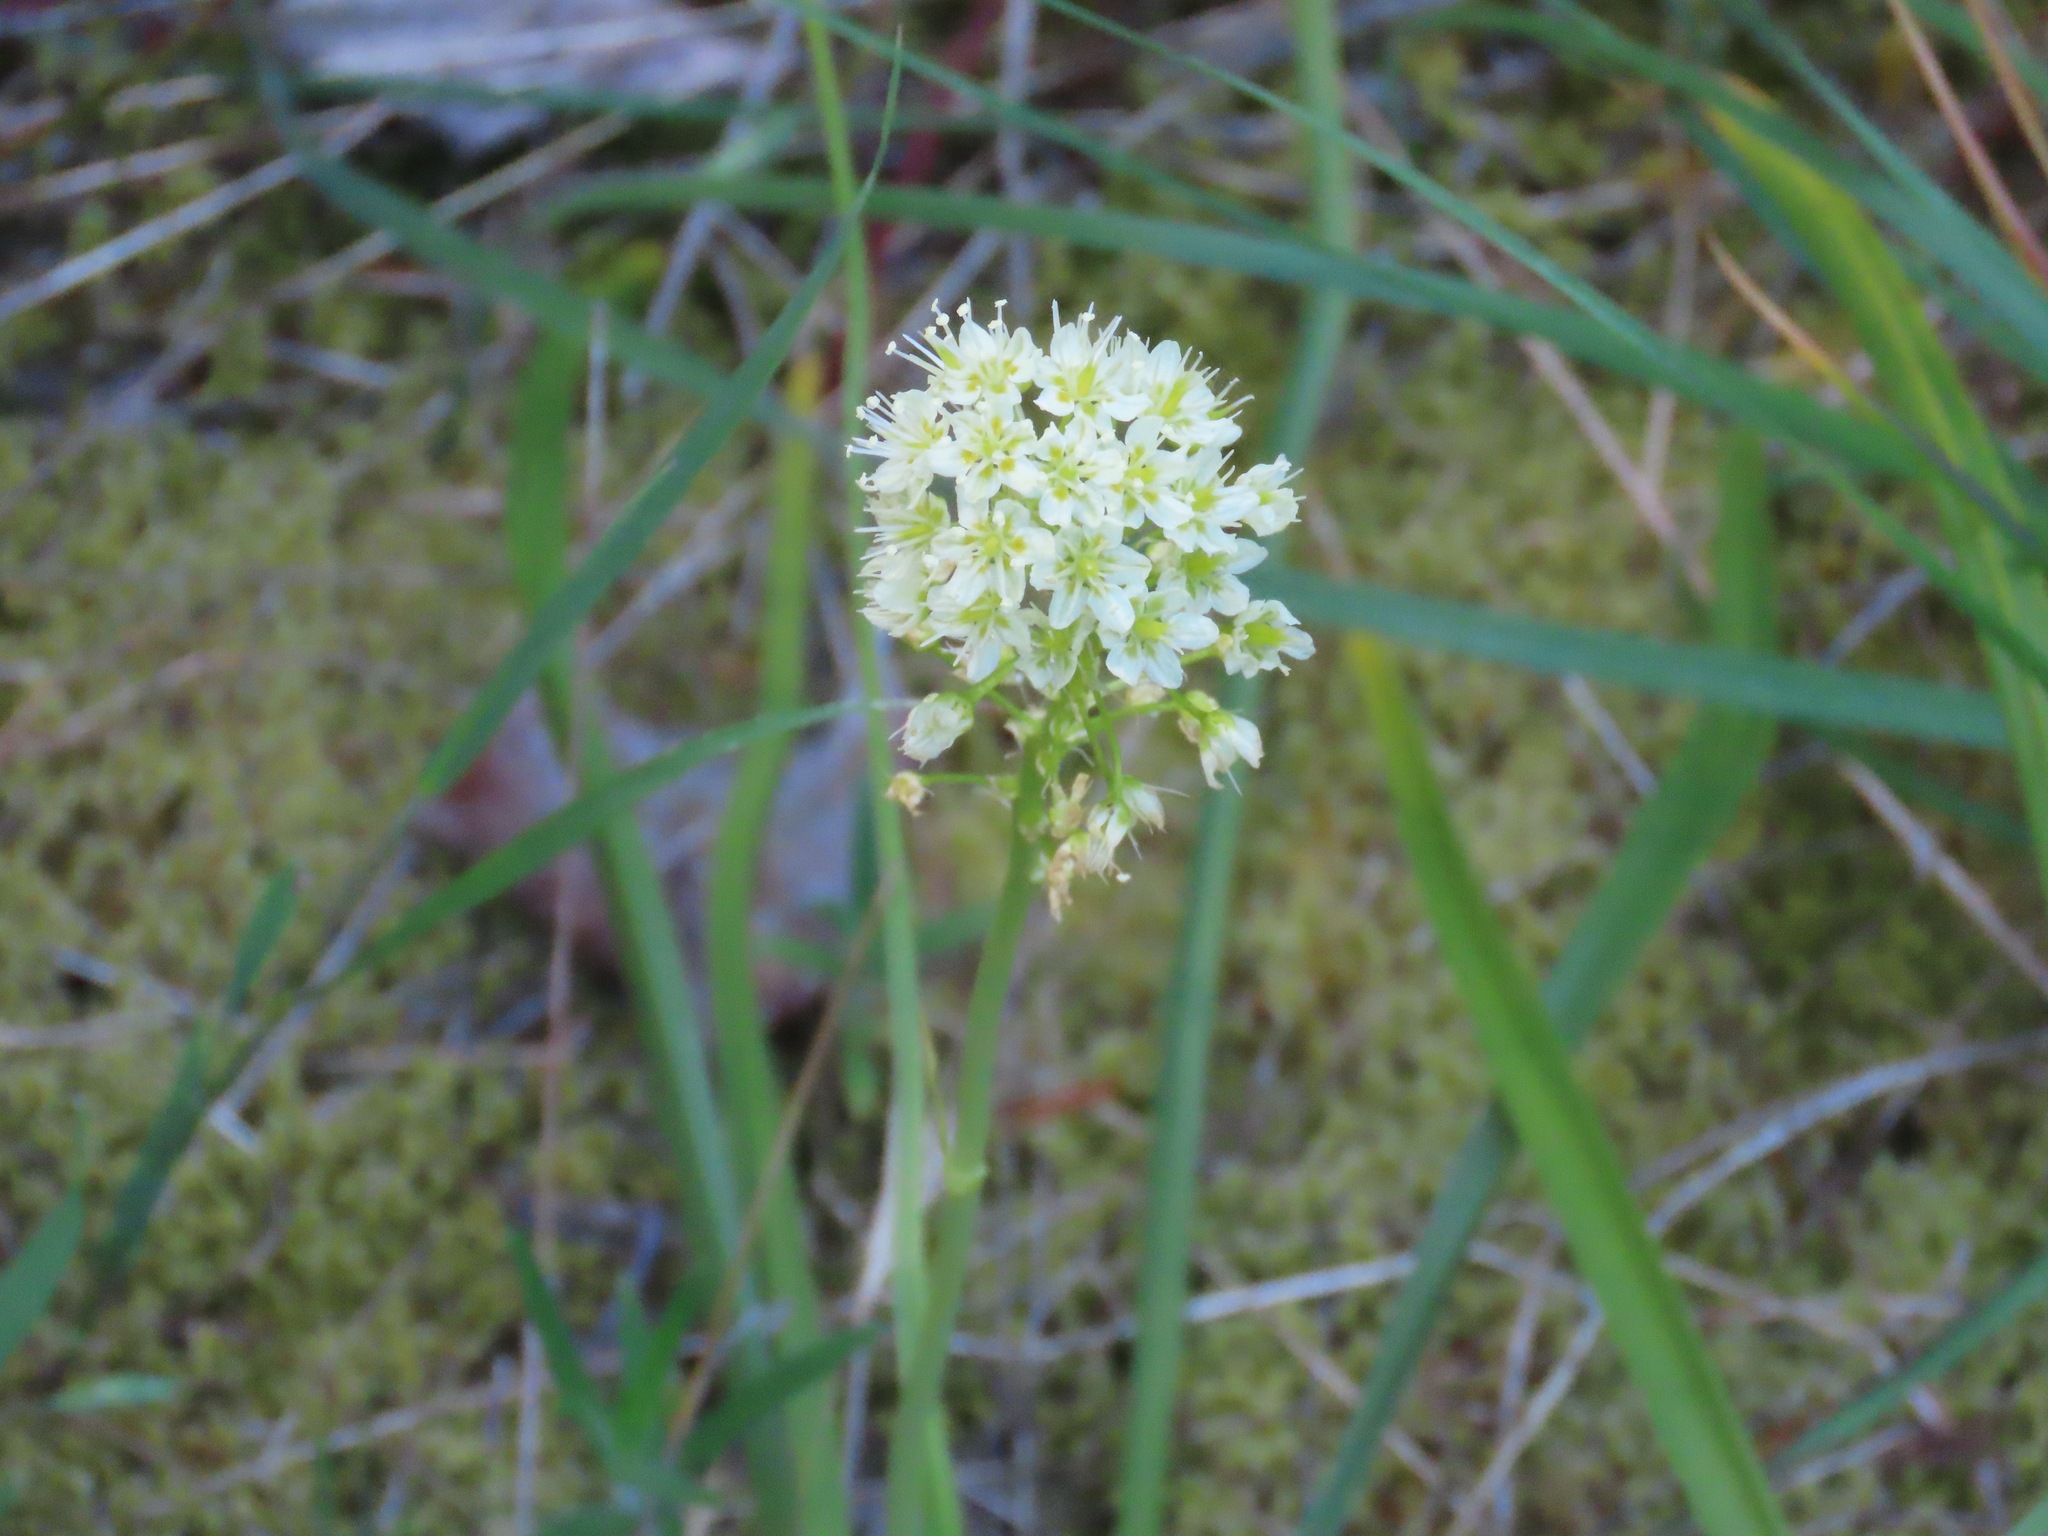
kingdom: Plantae
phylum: Tracheophyta
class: Liliopsida
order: Liliales
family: Melanthiaceae
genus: Toxicoscordion
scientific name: Toxicoscordion venenosum
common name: Meadow death camas
